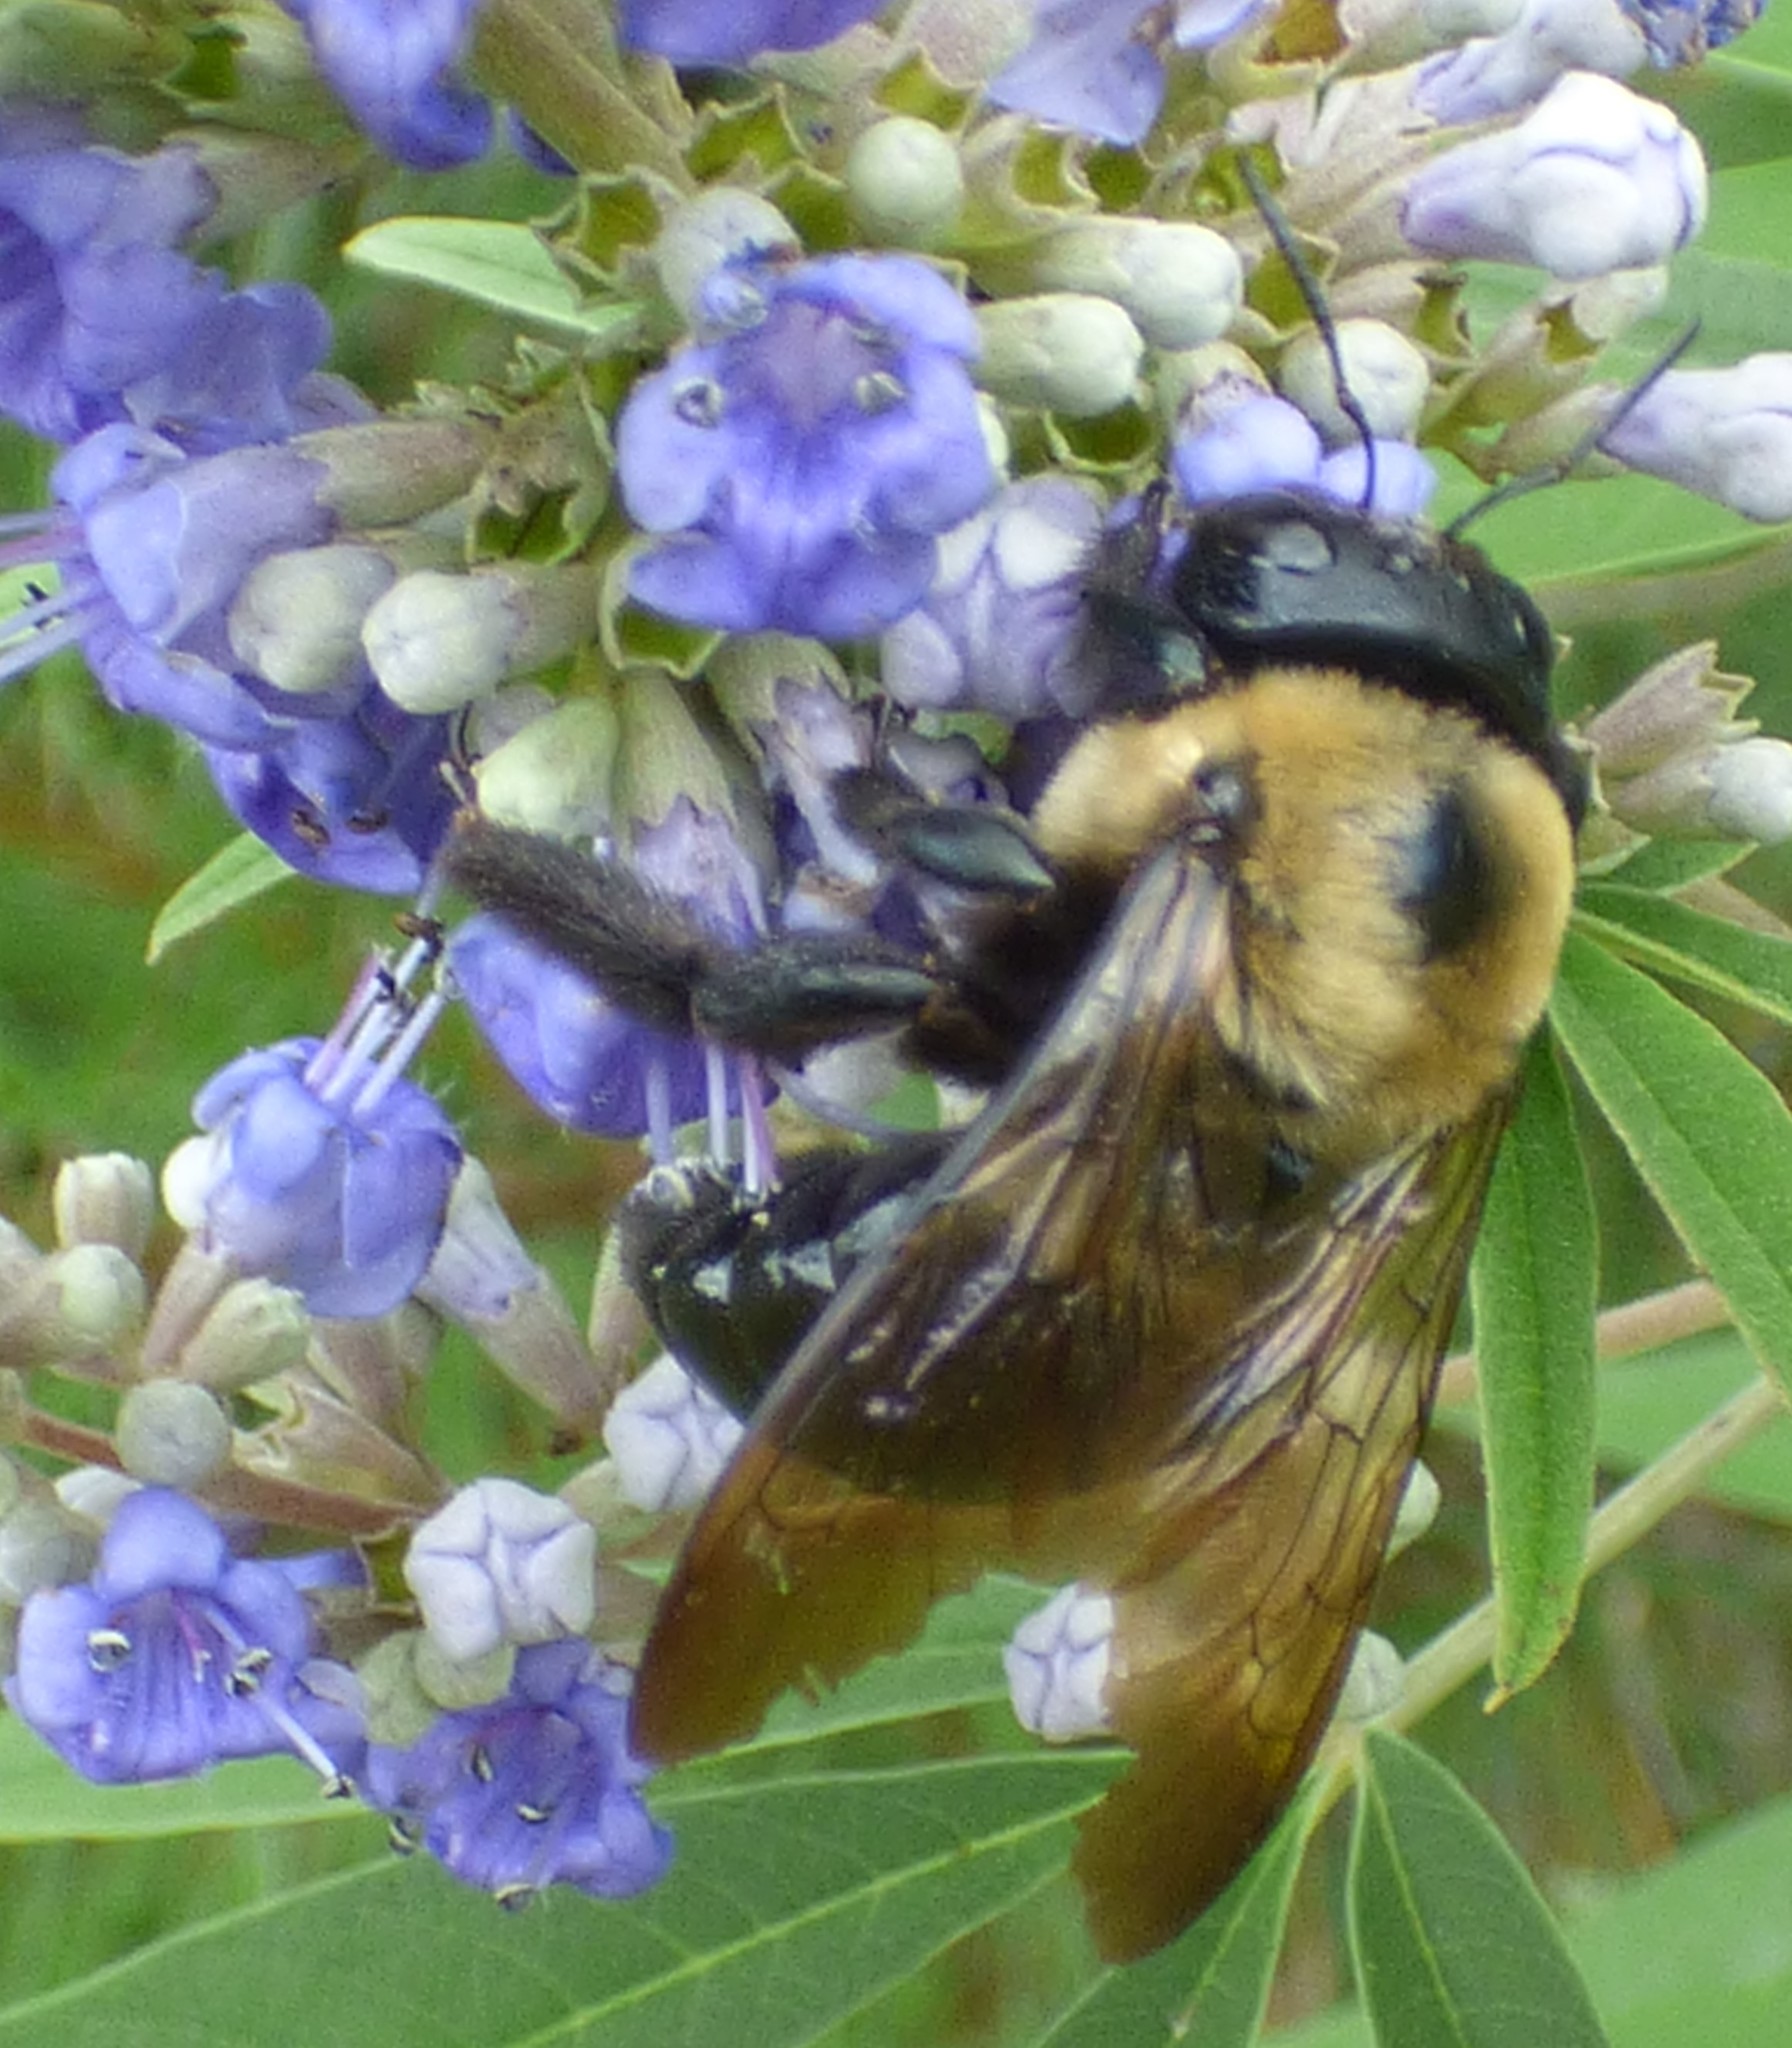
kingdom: Animalia
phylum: Arthropoda
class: Insecta
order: Hymenoptera
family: Apidae
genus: Xylocopa
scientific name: Xylocopa virginica
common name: Carpenter bee
